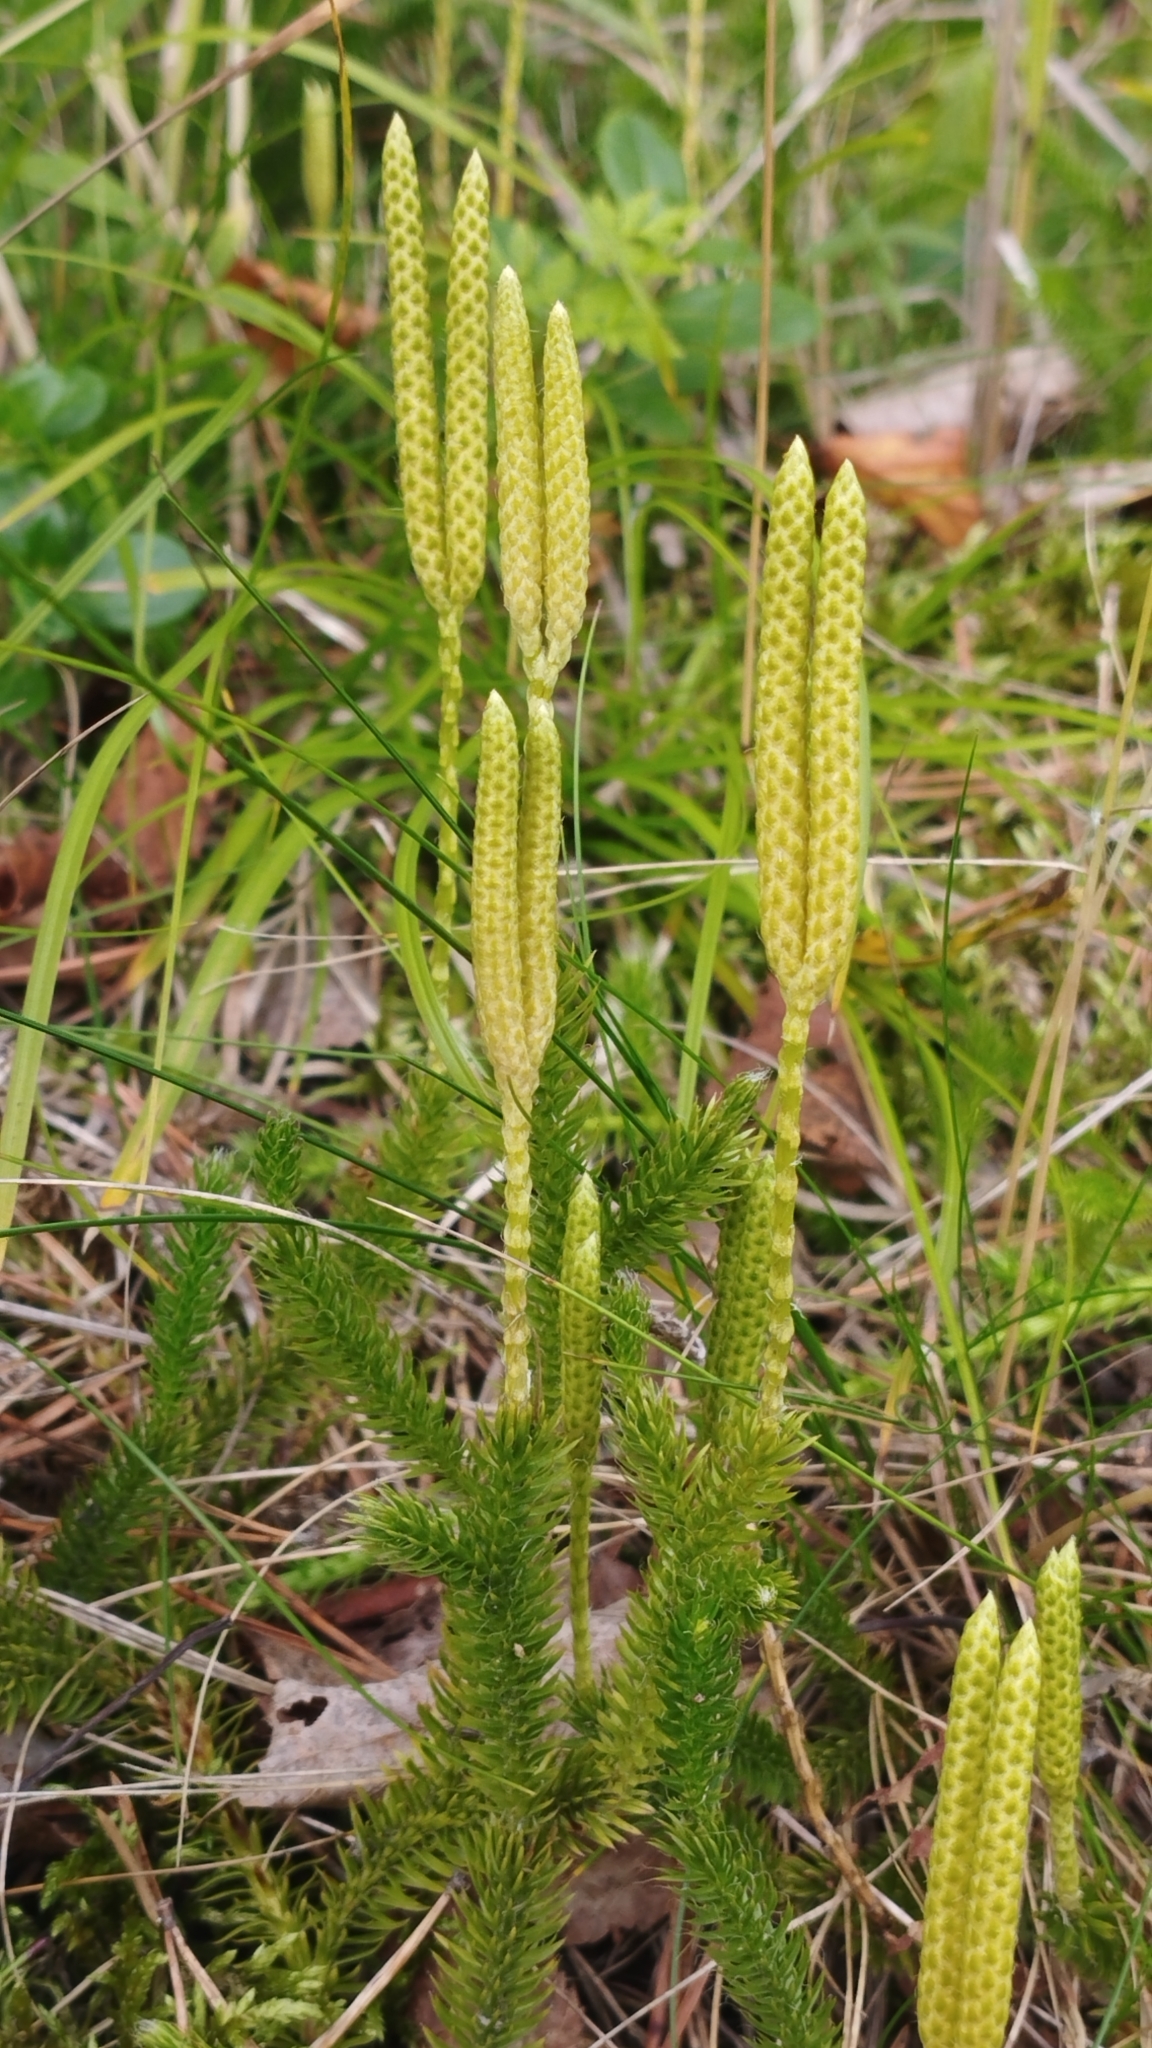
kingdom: Plantae
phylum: Tracheophyta
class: Lycopodiopsida
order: Lycopodiales
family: Lycopodiaceae
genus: Lycopodium
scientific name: Lycopodium clavatum
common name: Stag's-horn clubmoss
